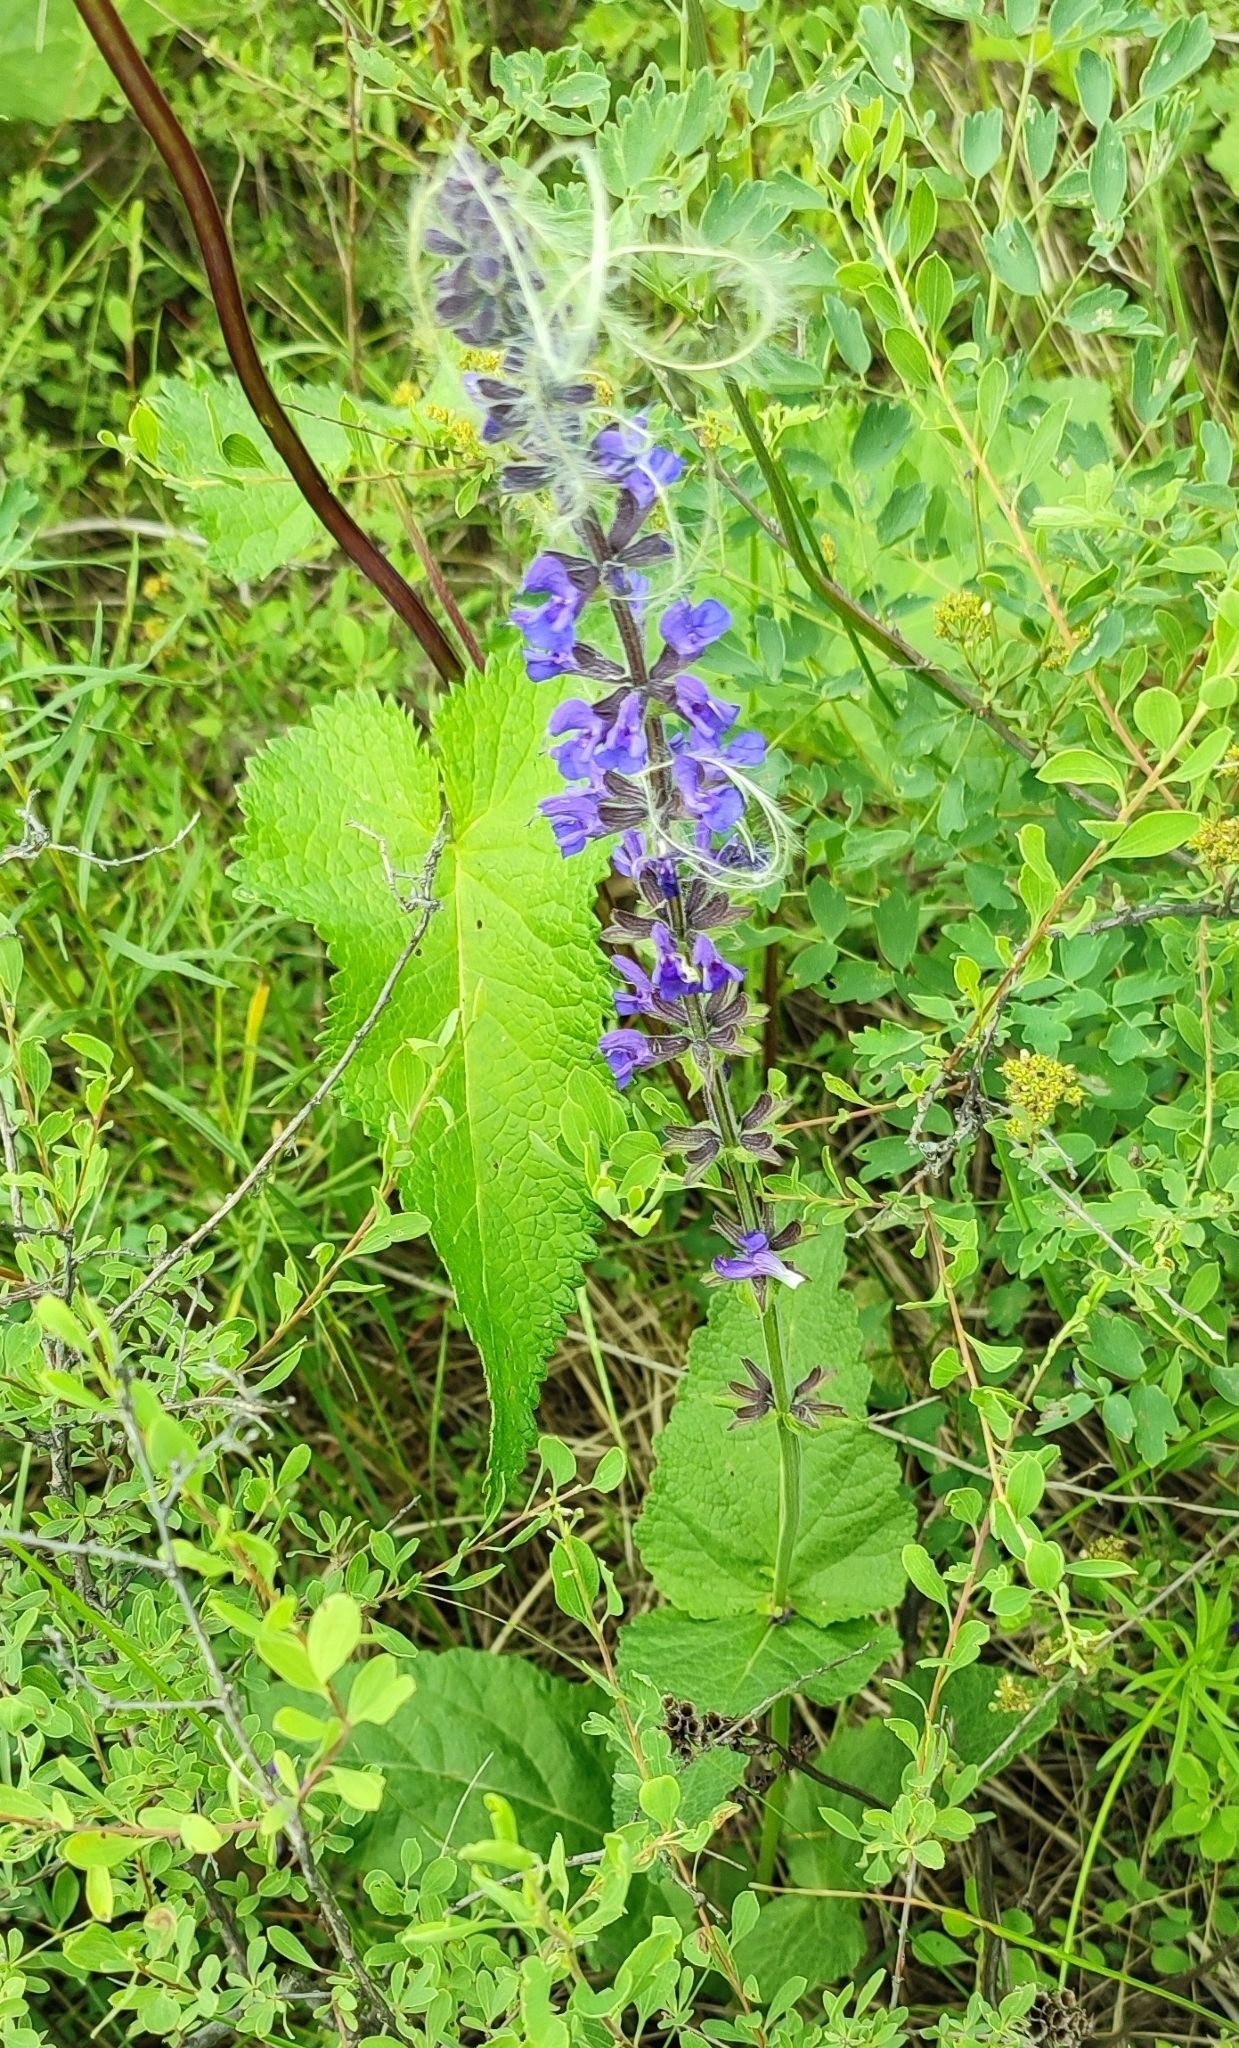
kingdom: Plantae
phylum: Tracheophyta
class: Magnoliopsida
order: Lamiales
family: Lamiaceae
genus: Salvia
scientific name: Salvia dumetorum
